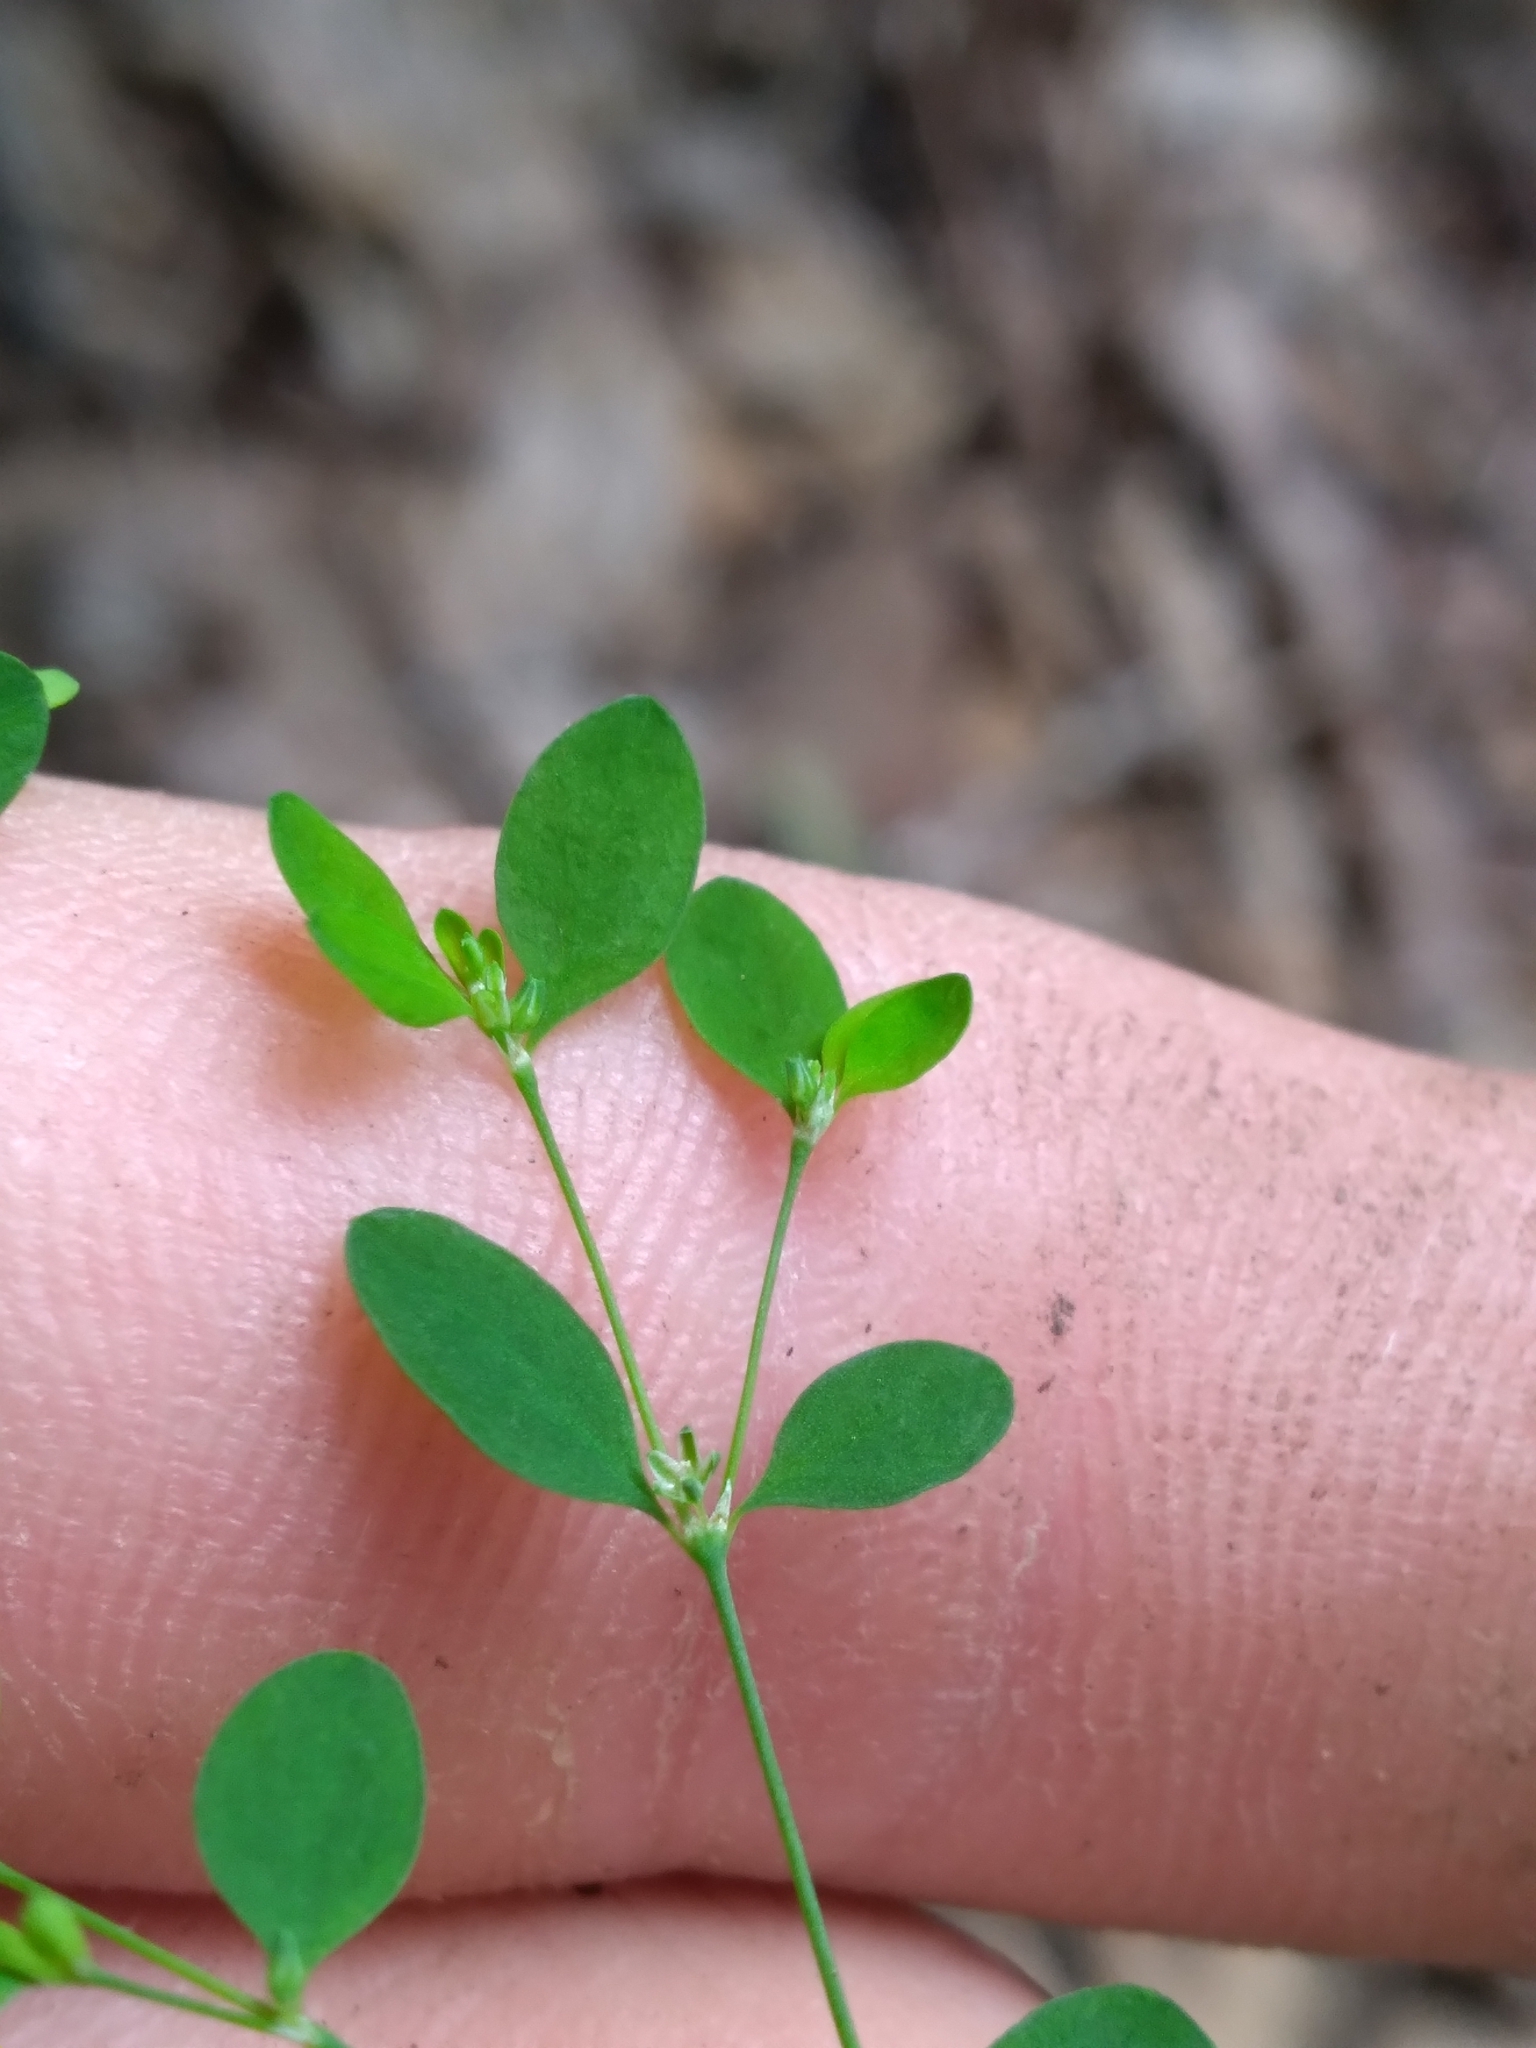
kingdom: Plantae
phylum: Tracheophyta
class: Magnoliopsida
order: Caryophyllales
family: Caryophyllaceae
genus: Paronychia
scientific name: Paronychia canadensis
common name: Canada forked nailwort
